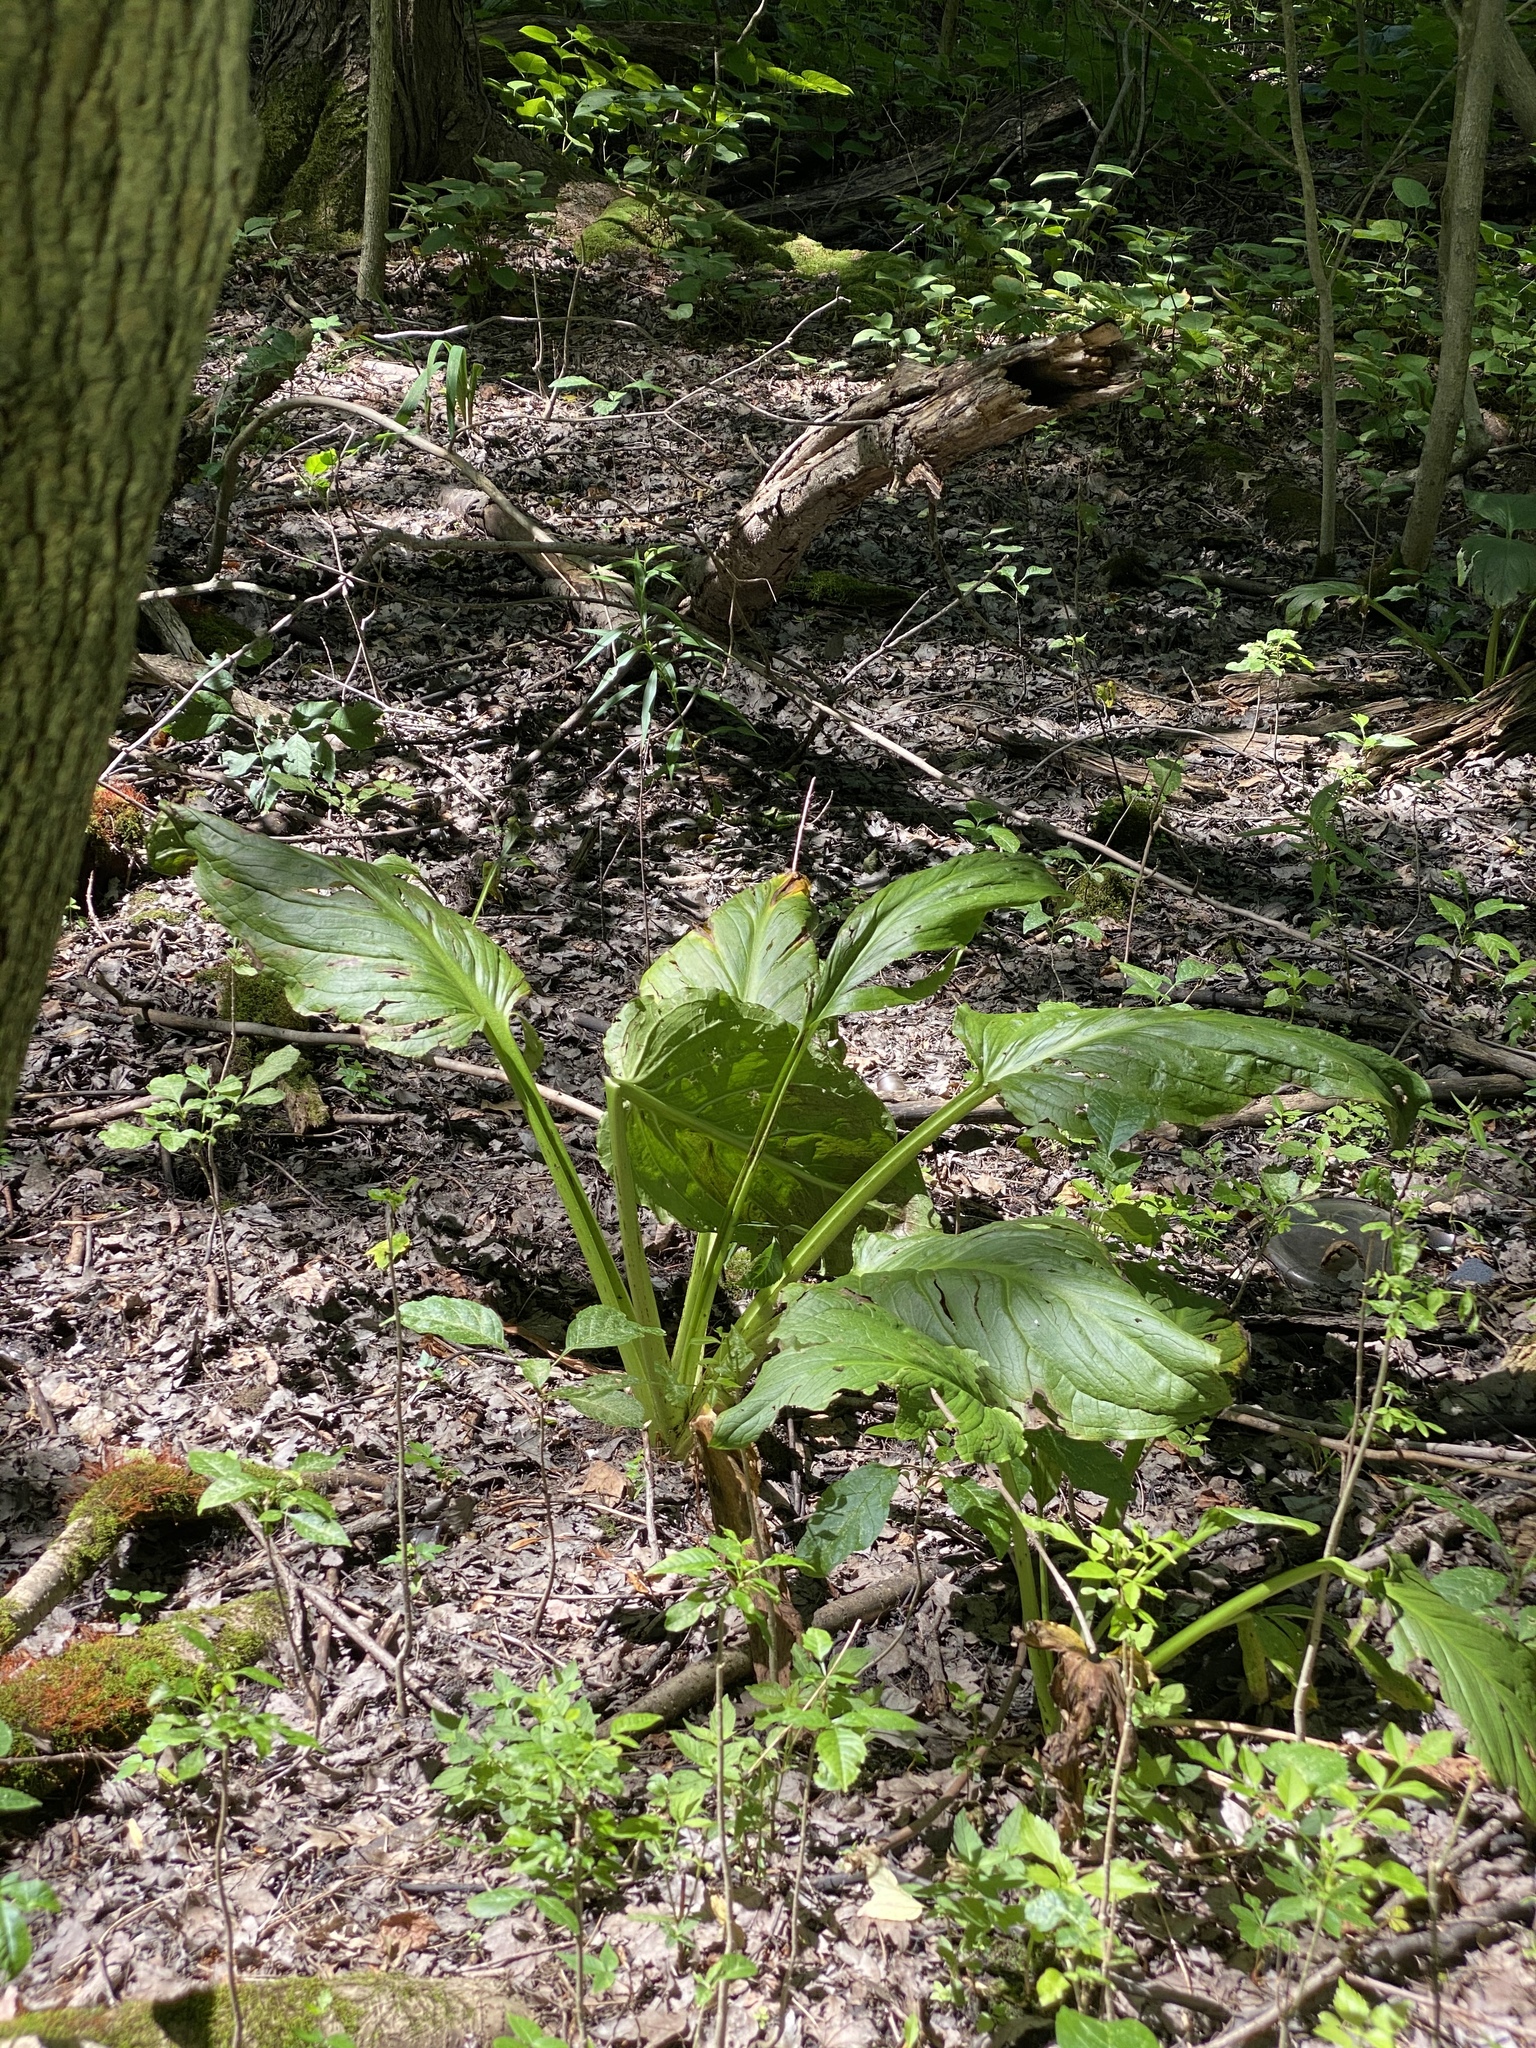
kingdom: Plantae
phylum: Tracheophyta
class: Liliopsida
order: Alismatales
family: Araceae
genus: Symplocarpus
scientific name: Symplocarpus foetidus
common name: Eastern skunk cabbage
